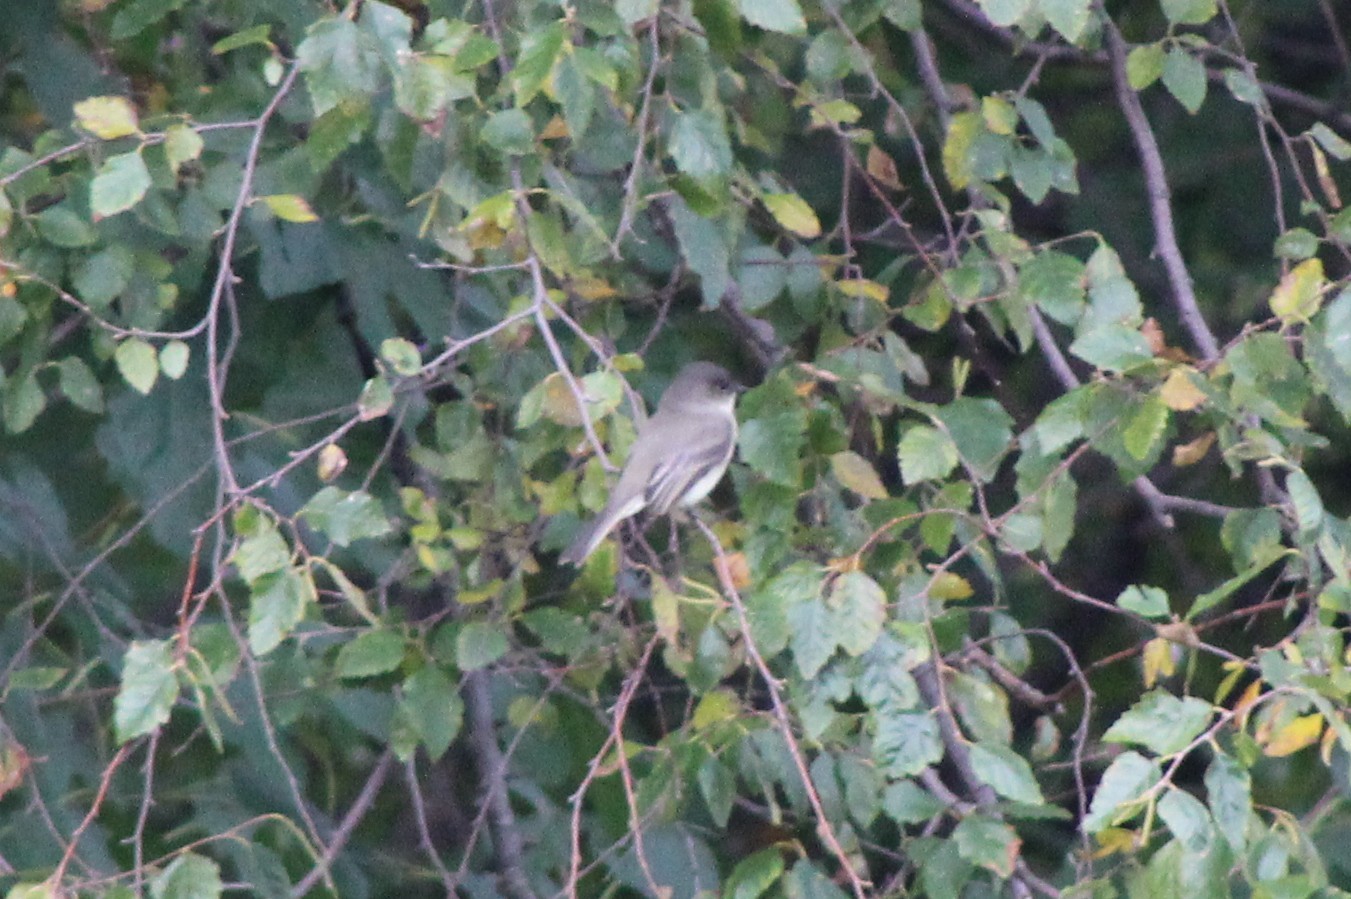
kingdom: Animalia
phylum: Chordata
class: Aves
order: Passeriformes
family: Tyrannidae
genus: Sayornis
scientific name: Sayornis phoebe
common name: Eastern phoebe
